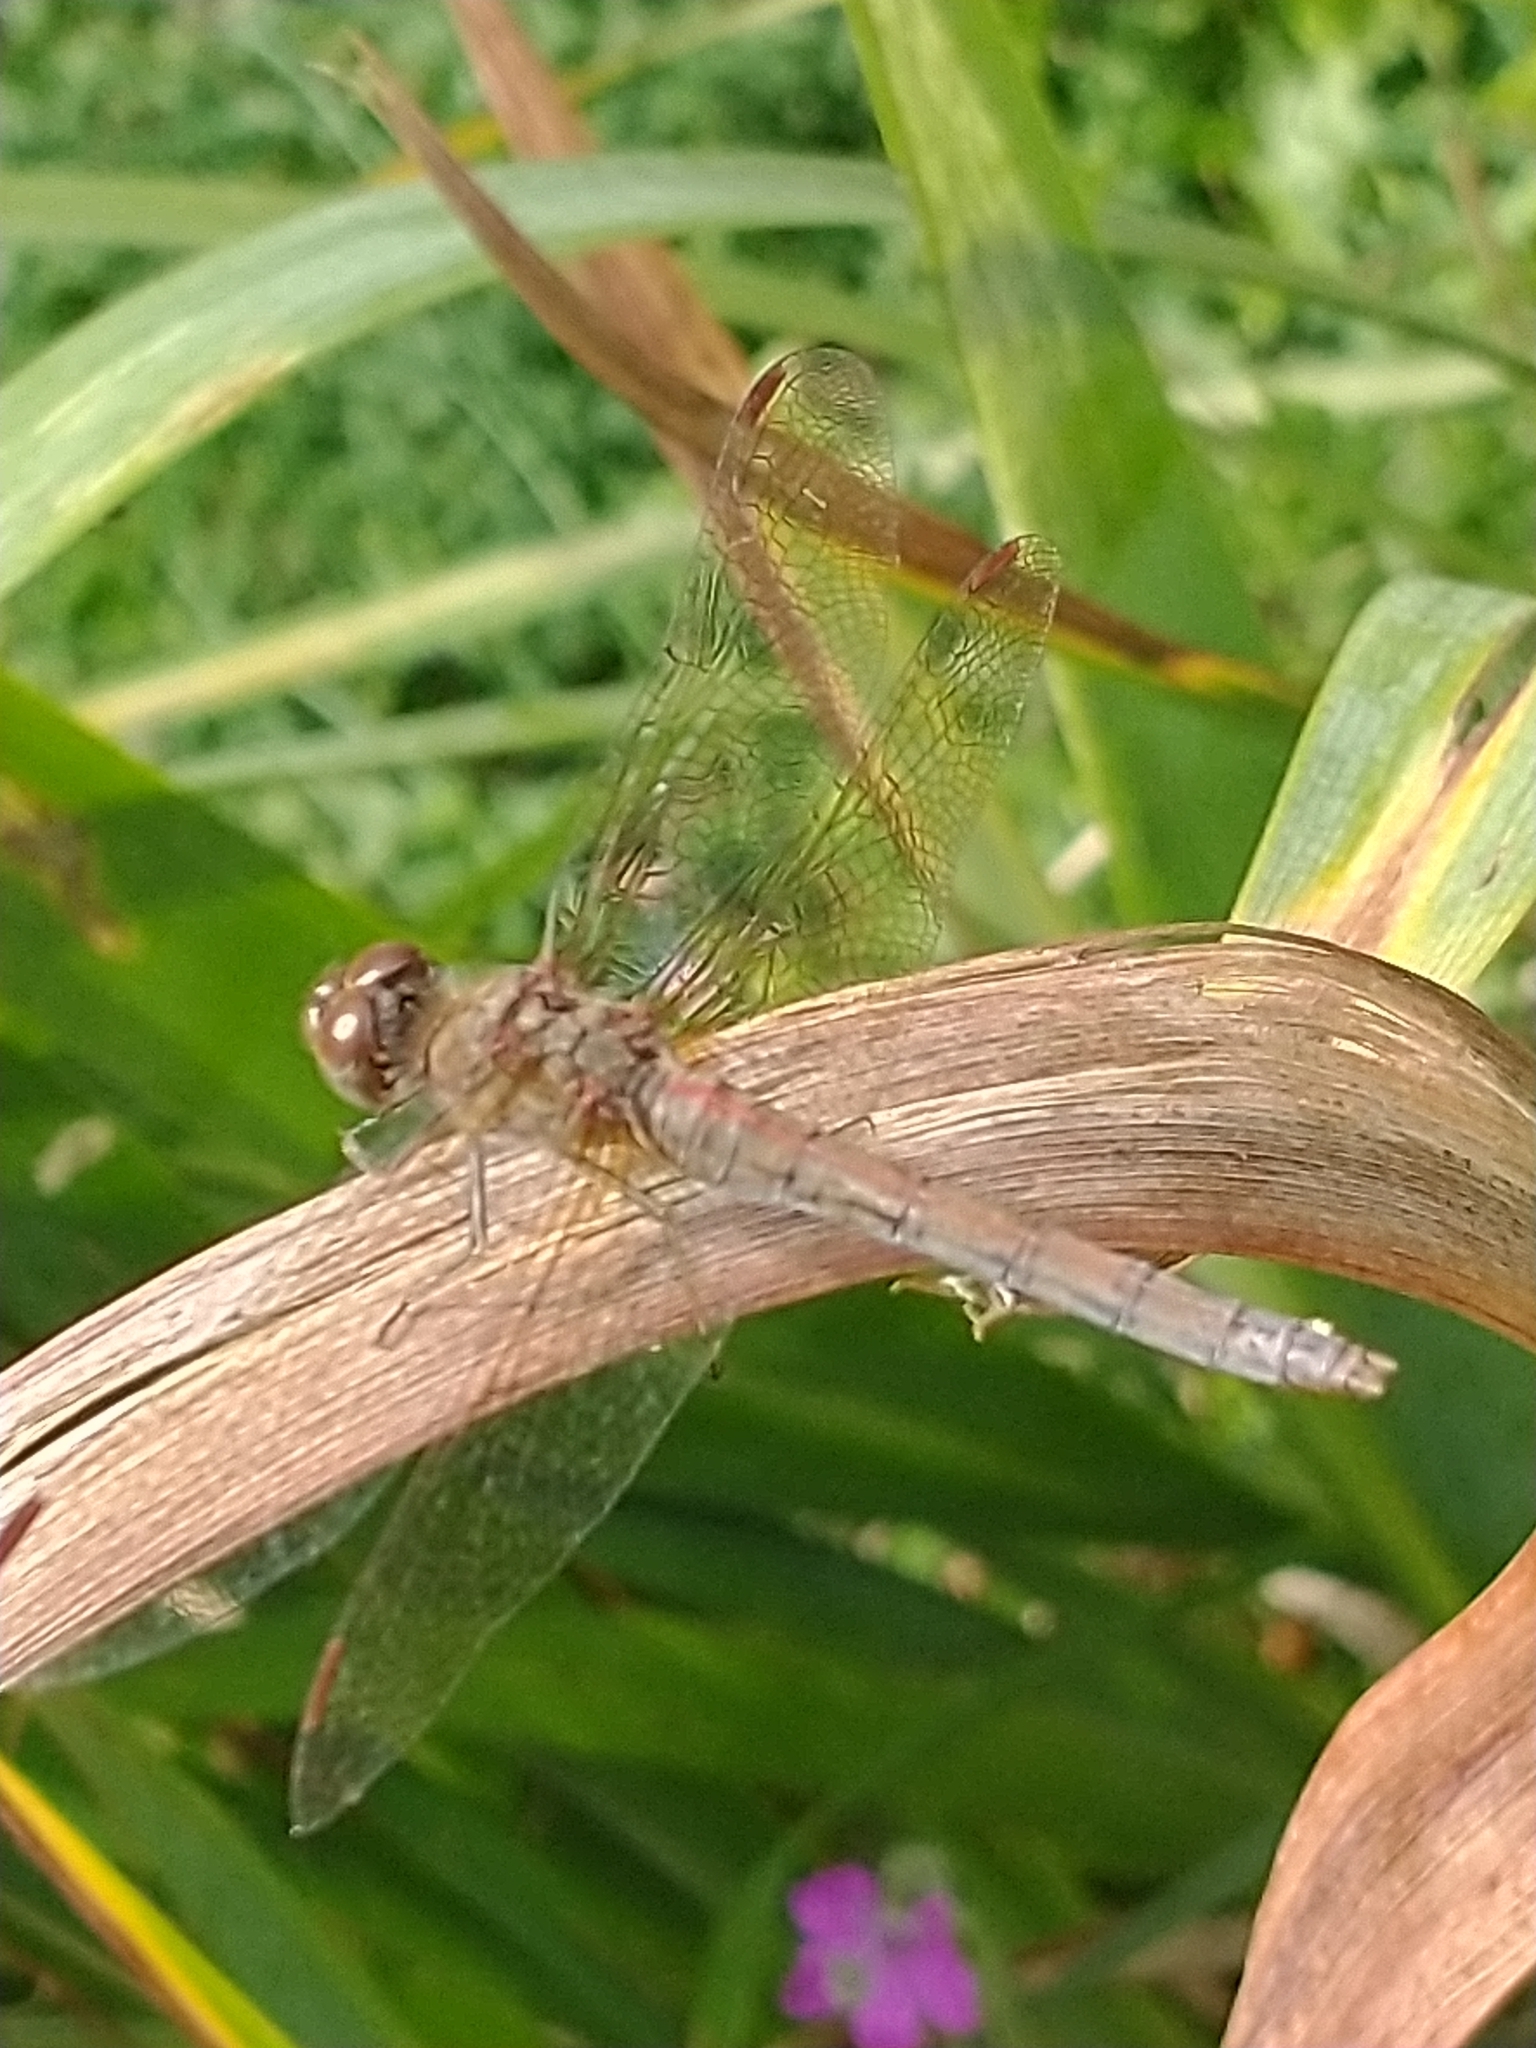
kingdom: Animalia
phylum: Arthropoda
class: Insecta
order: Odonata
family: Libellulidae
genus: Sympetrum
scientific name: Sympetrum striolatum
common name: Common darter
